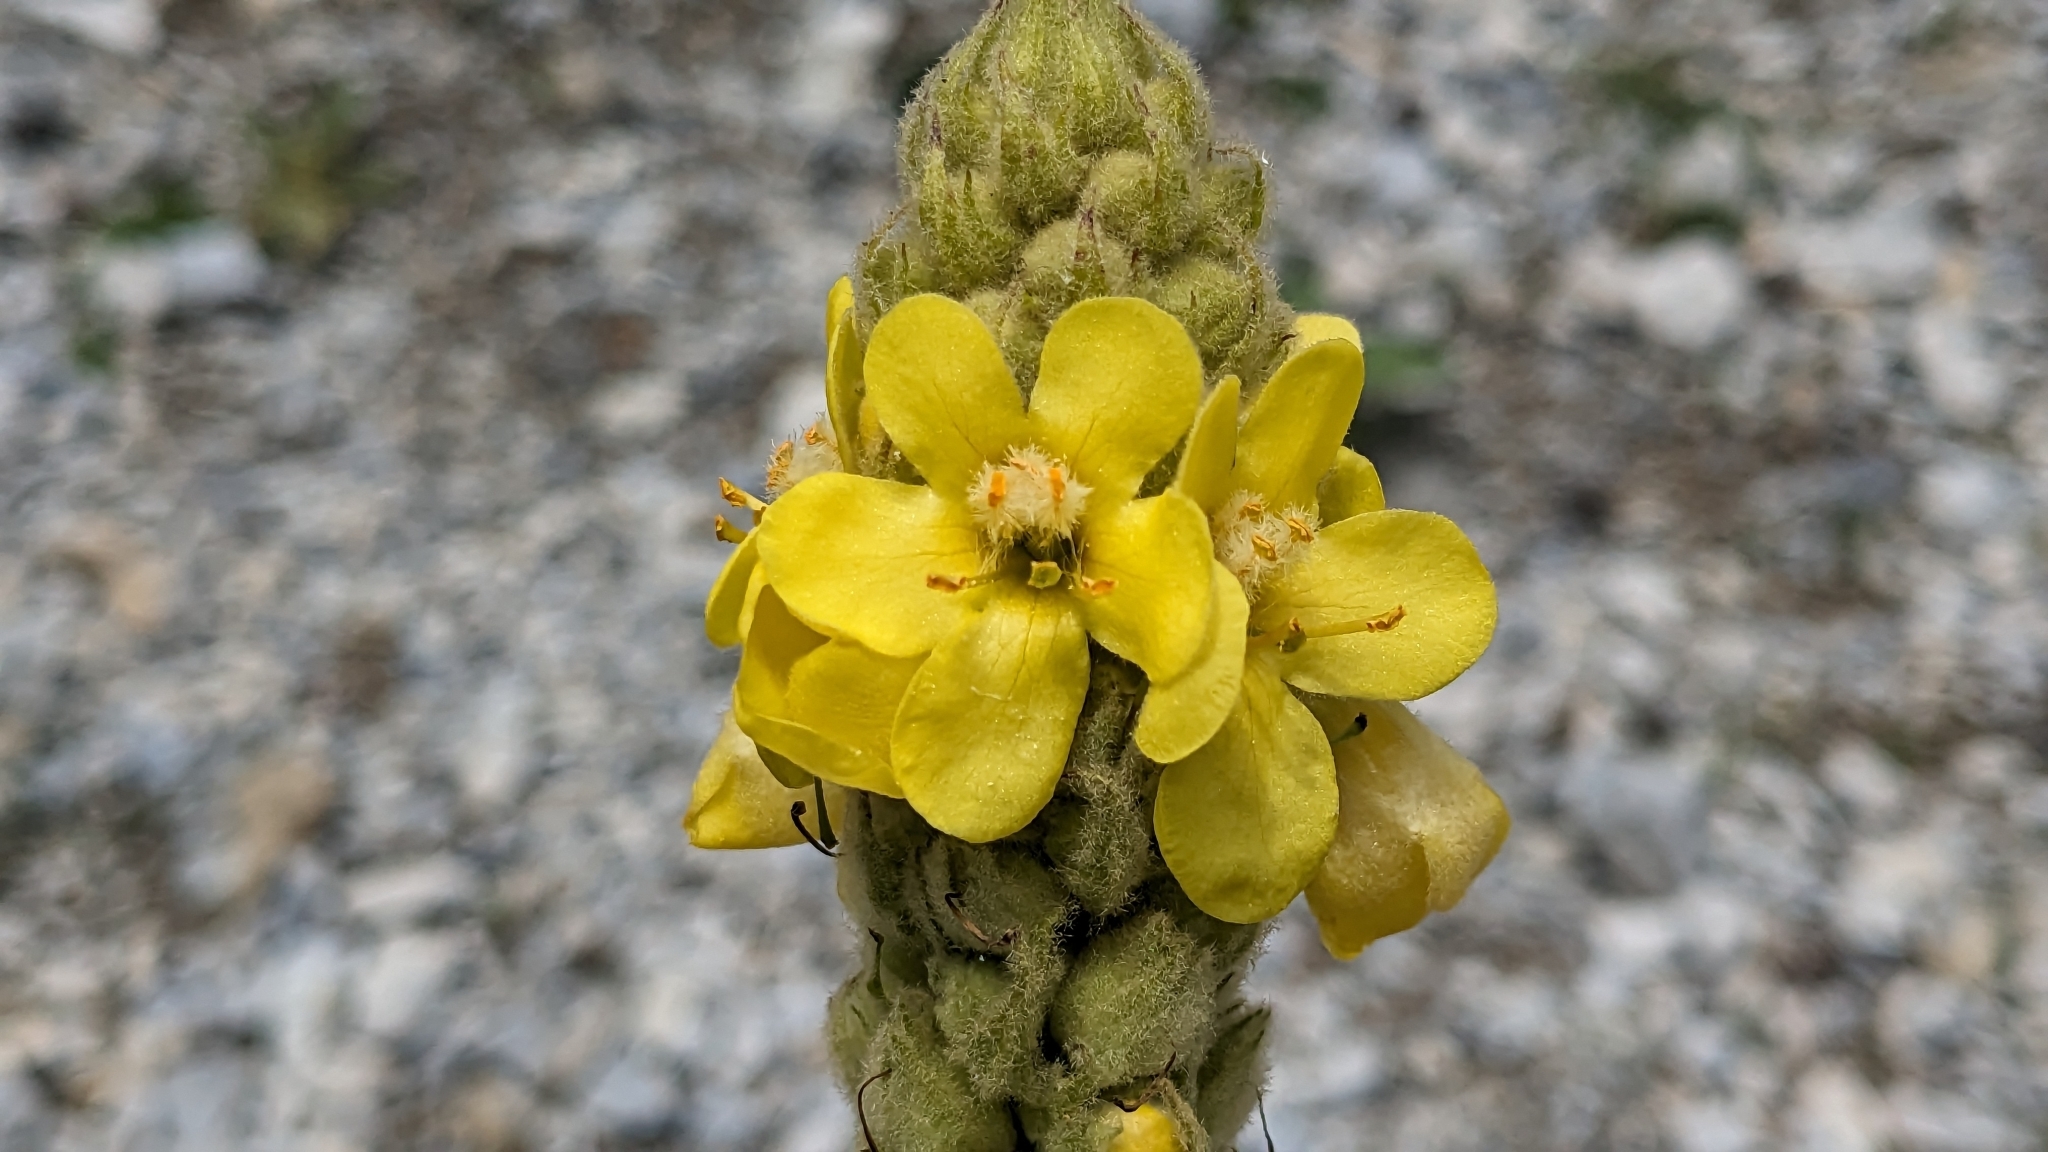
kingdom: Plantae
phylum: Tracheophyta
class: Magnoliopsida
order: Lamiales
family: Scrophulariaceae
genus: Verbascum
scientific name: Verbascum thapsus
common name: Common mullein
